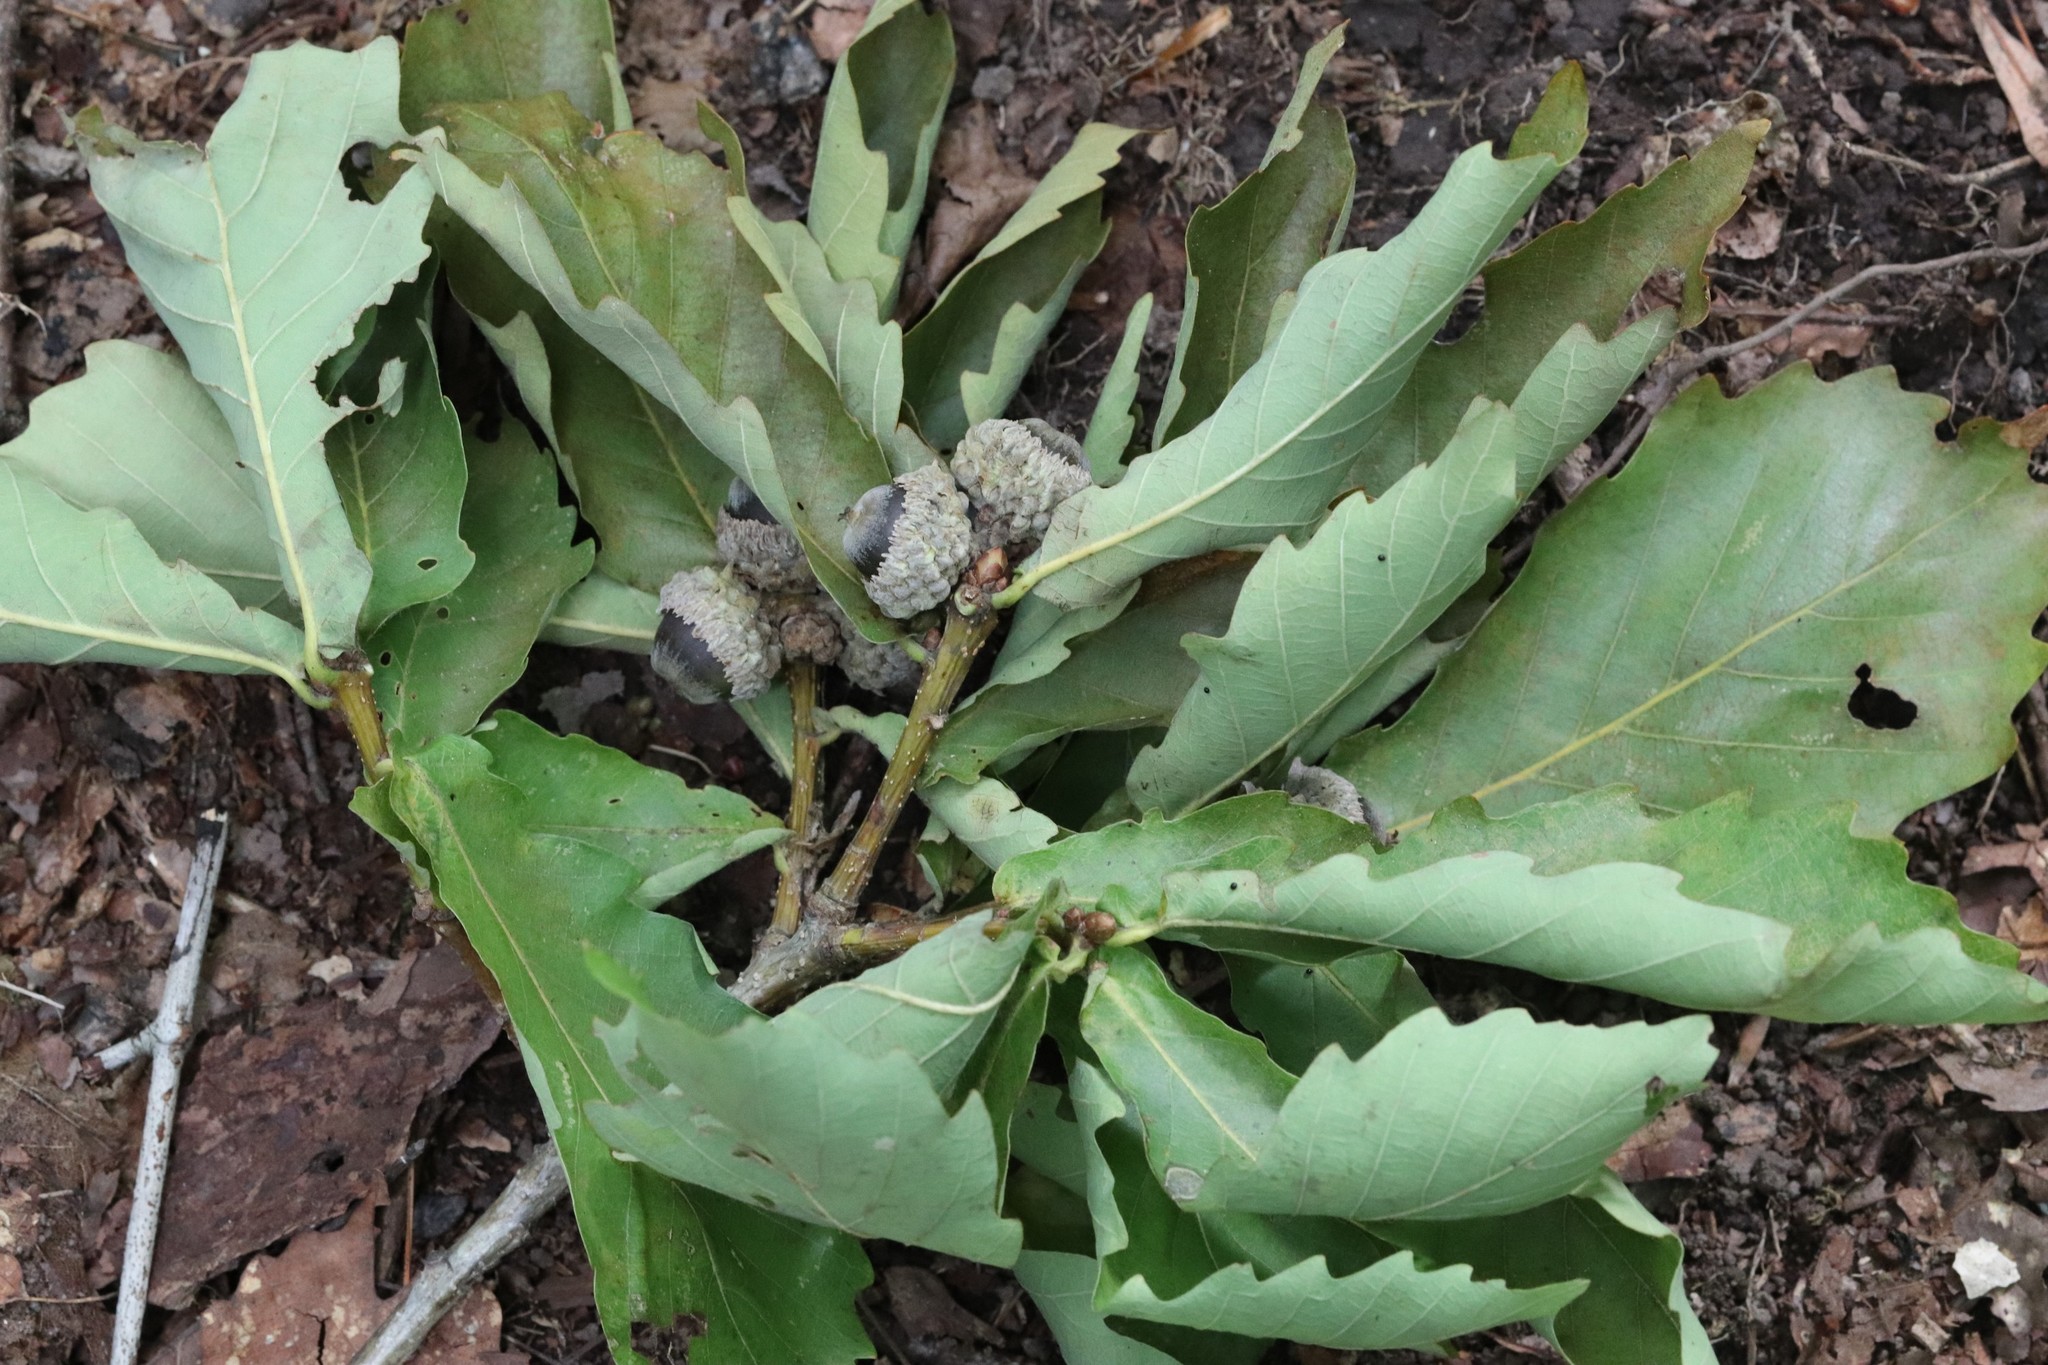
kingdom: Plantae
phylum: Tracheophyta
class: Magnoliopsida
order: Fagales
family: Fagaceae
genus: Quercus
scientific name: Quercus mongolica
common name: Mongolian oak
